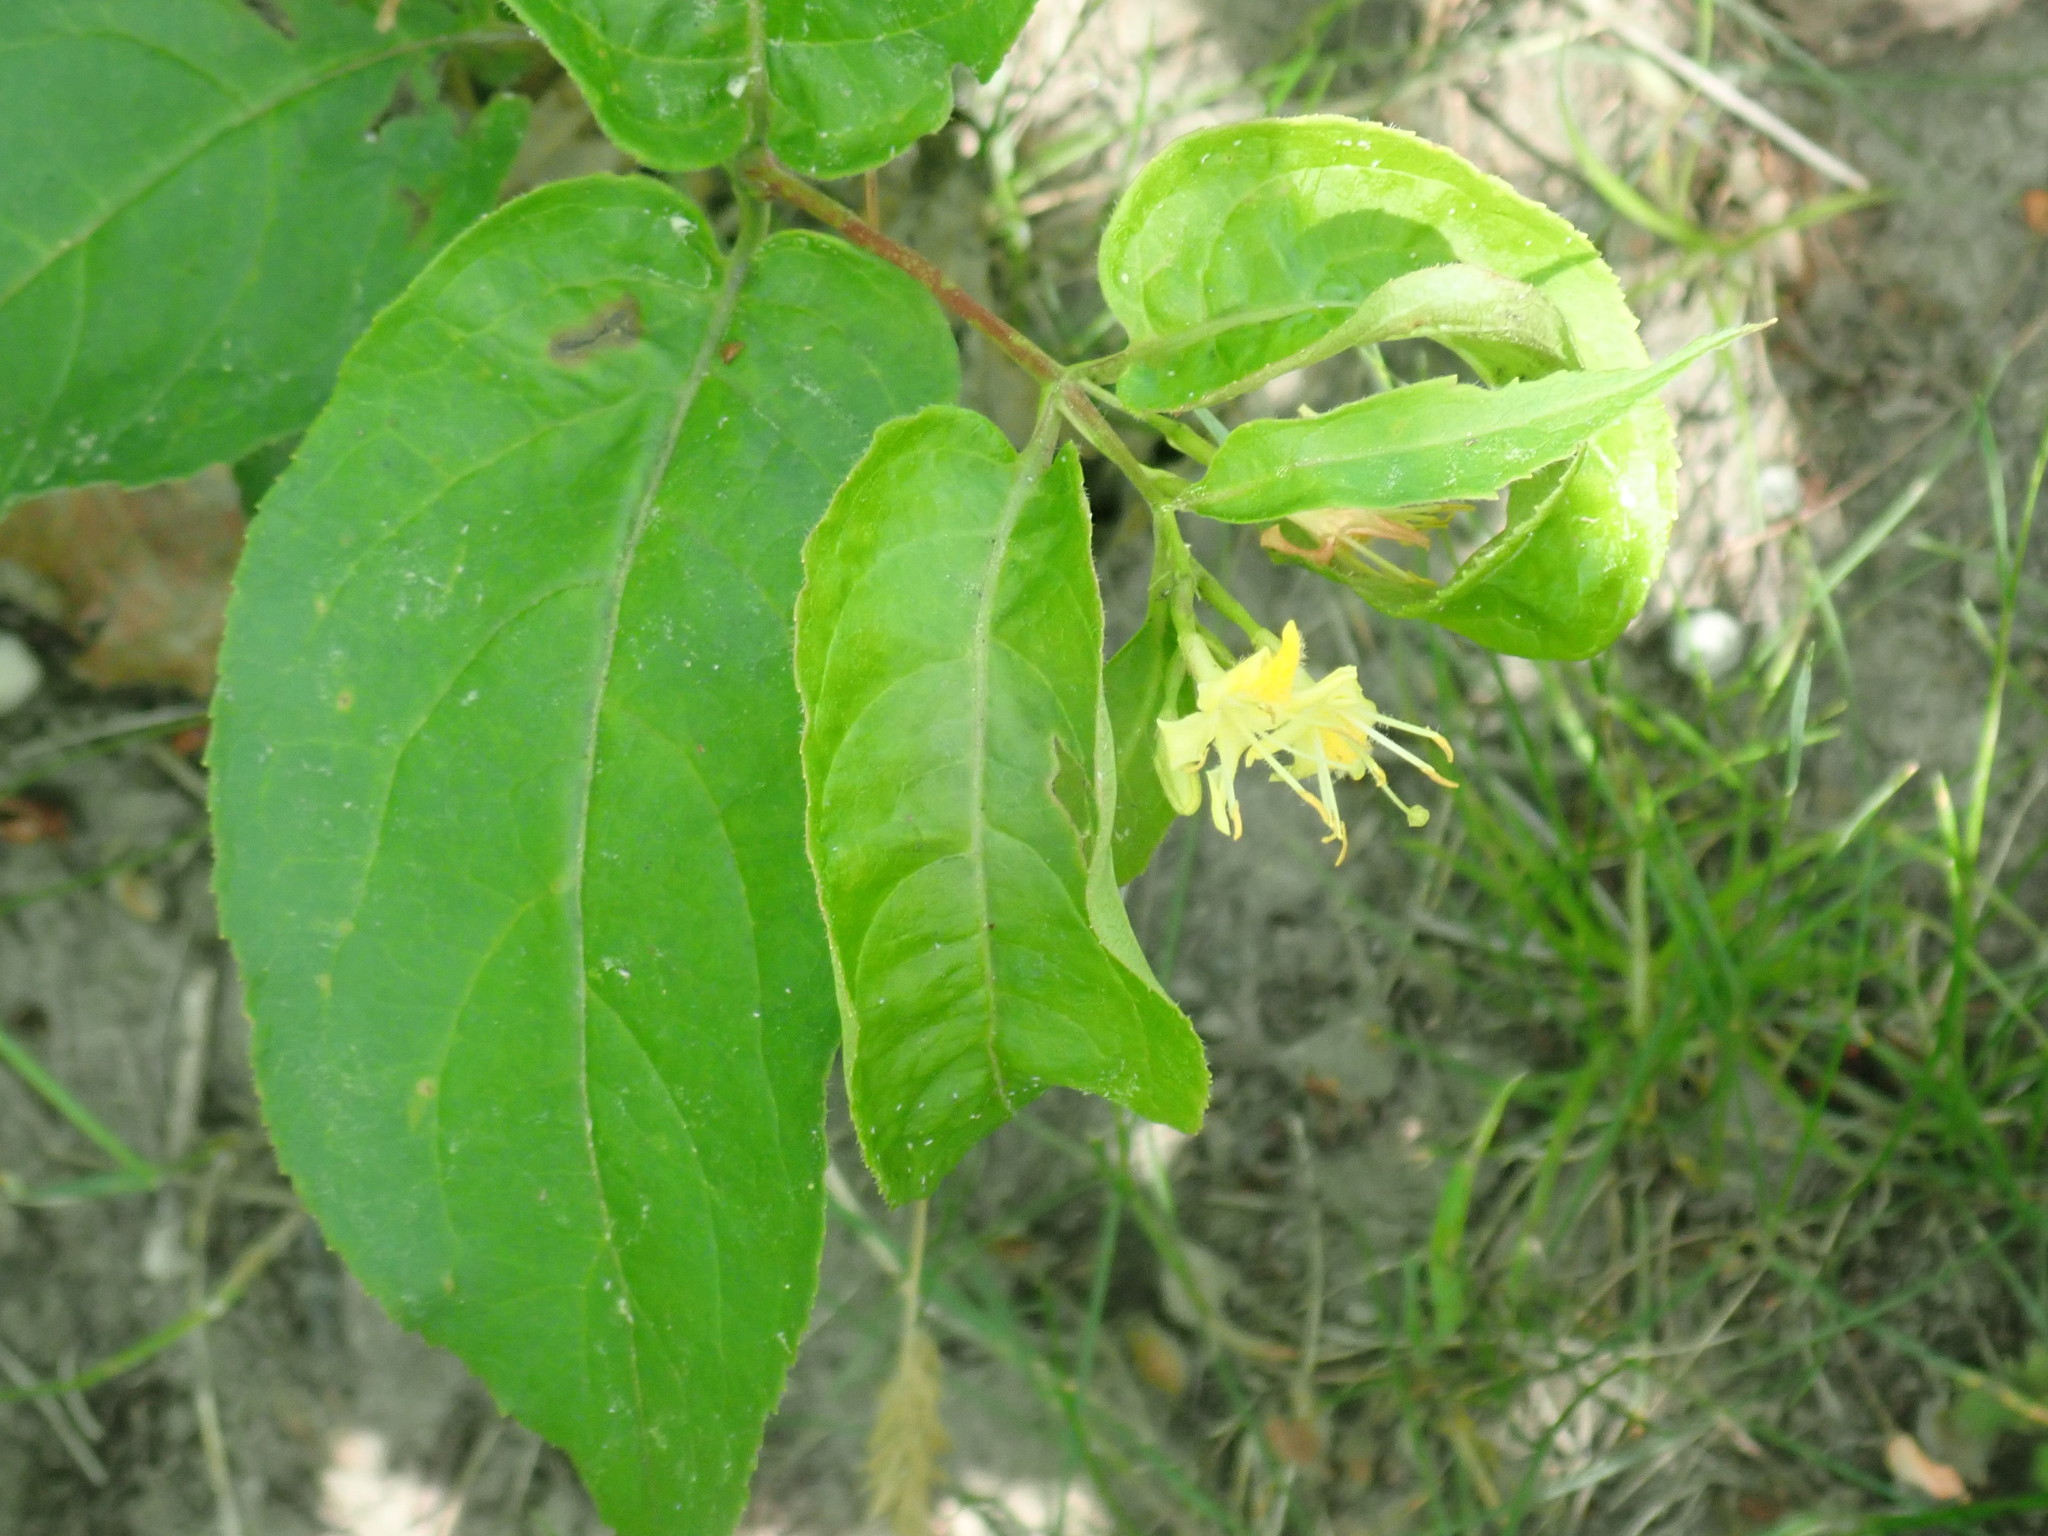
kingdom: Plantae
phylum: Tracheophyta
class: Magnoliopsida
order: Dipsacales
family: Caprifoliaceae
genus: Diervilla
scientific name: Diervilla lonicera
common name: Bush-honeysuckle
